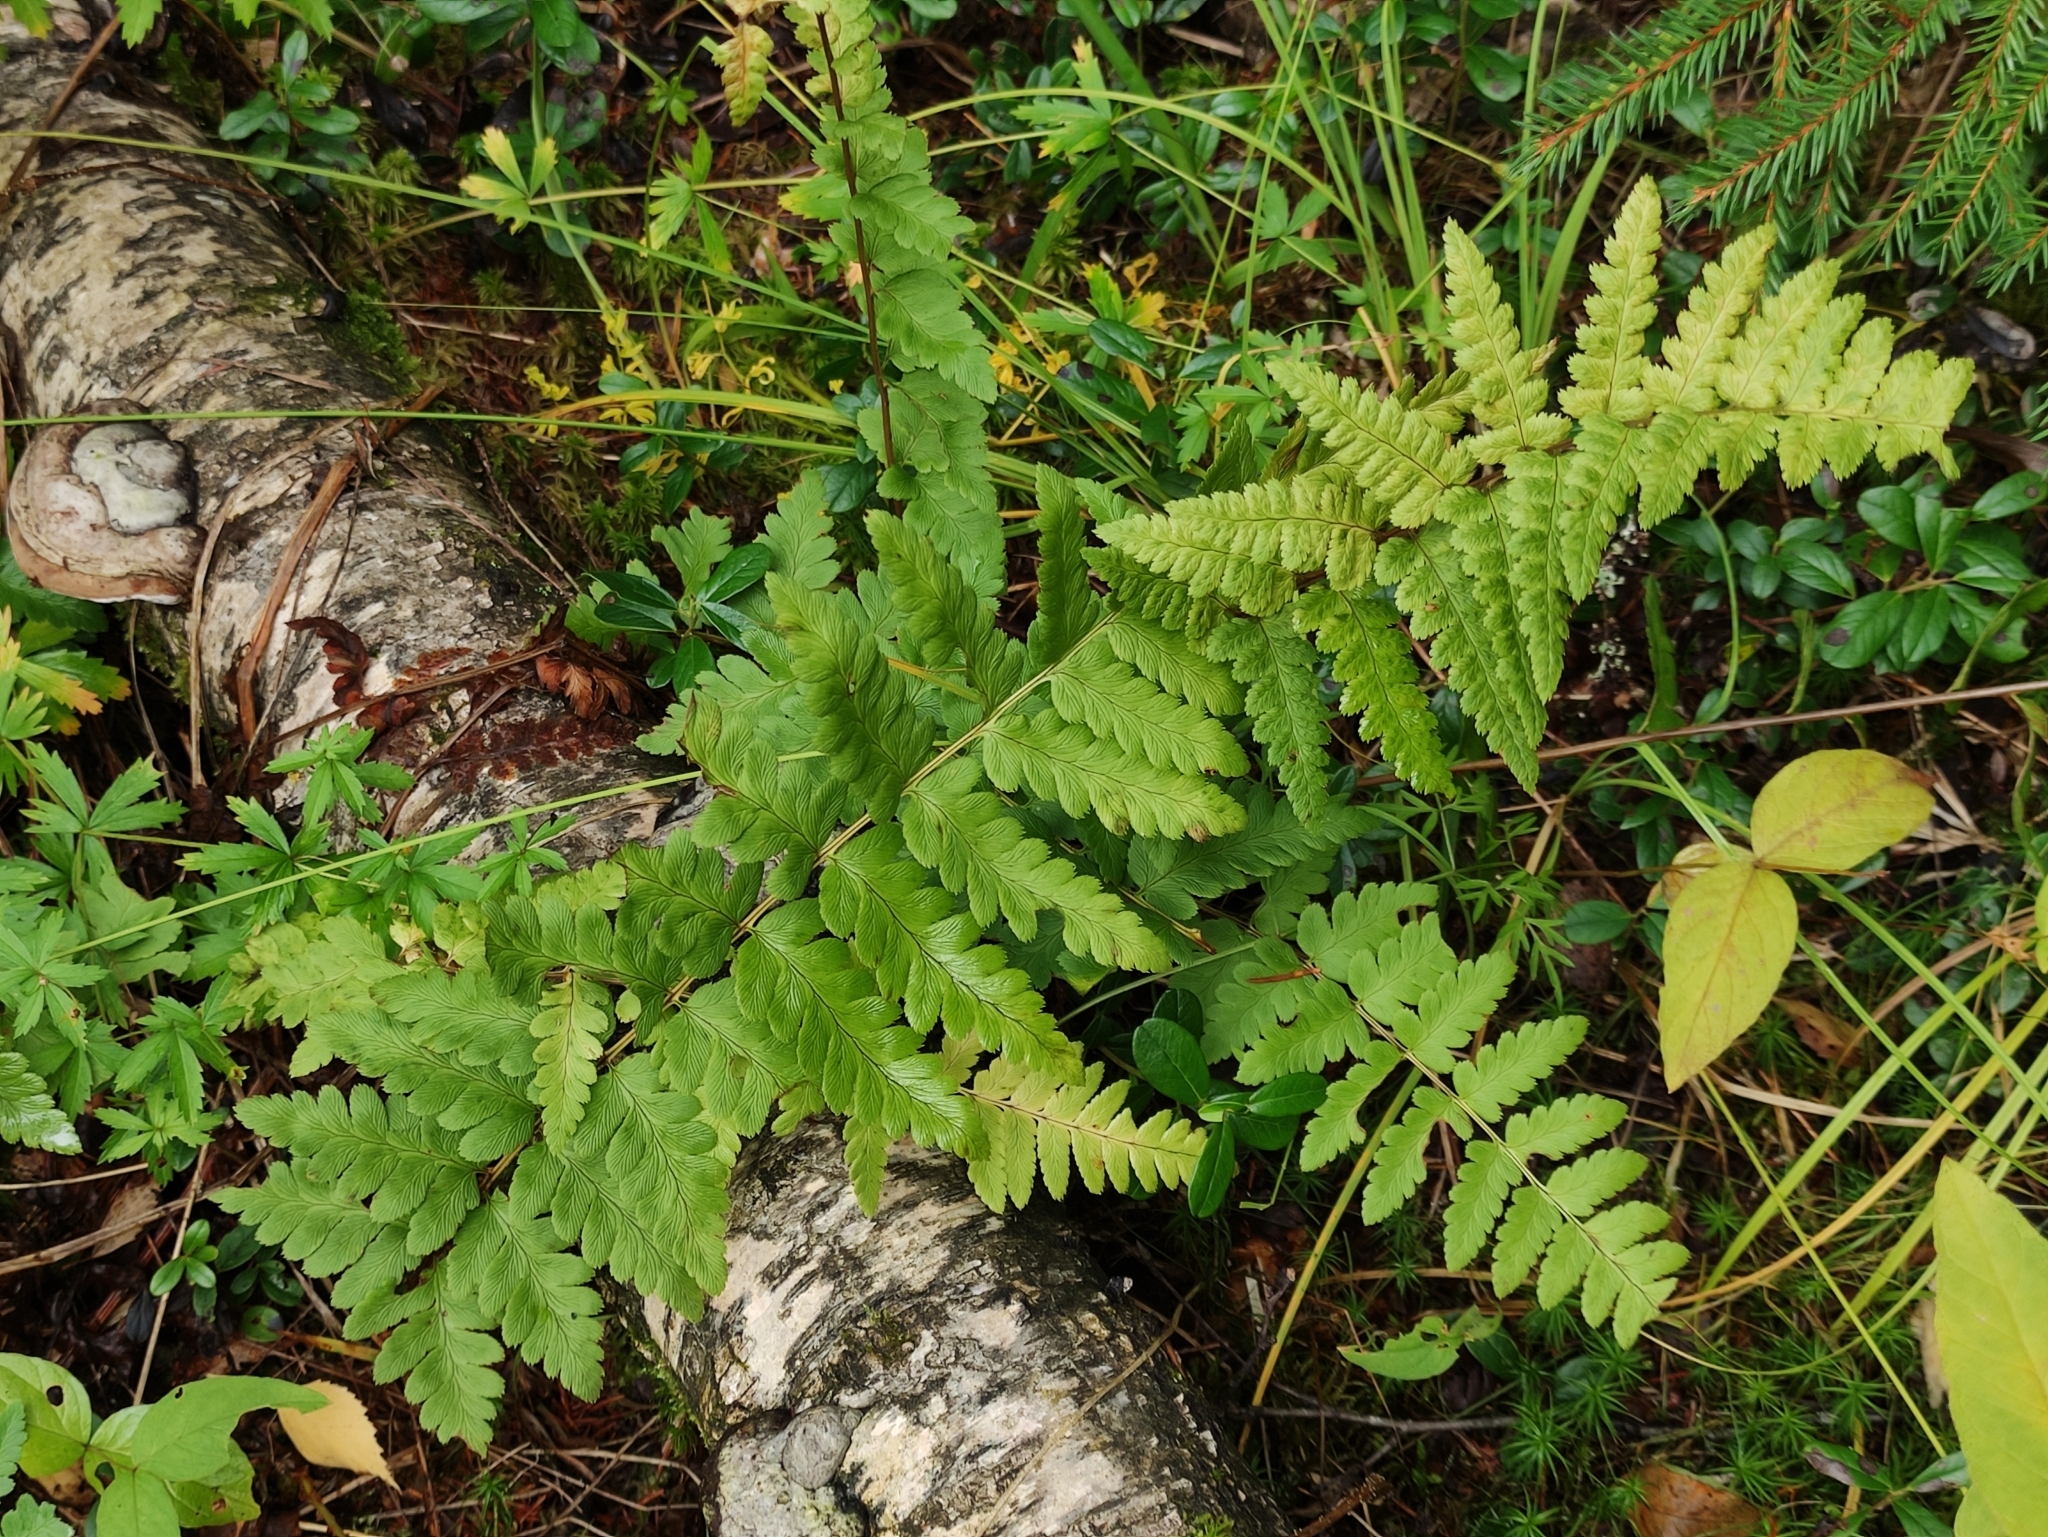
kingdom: Plantae
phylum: Tracheophyta
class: Polypodiopsida
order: Polypodiales
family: Dryopteridaceae
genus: Dryopteris
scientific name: Dryopteris cristata
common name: Crested wood fern
